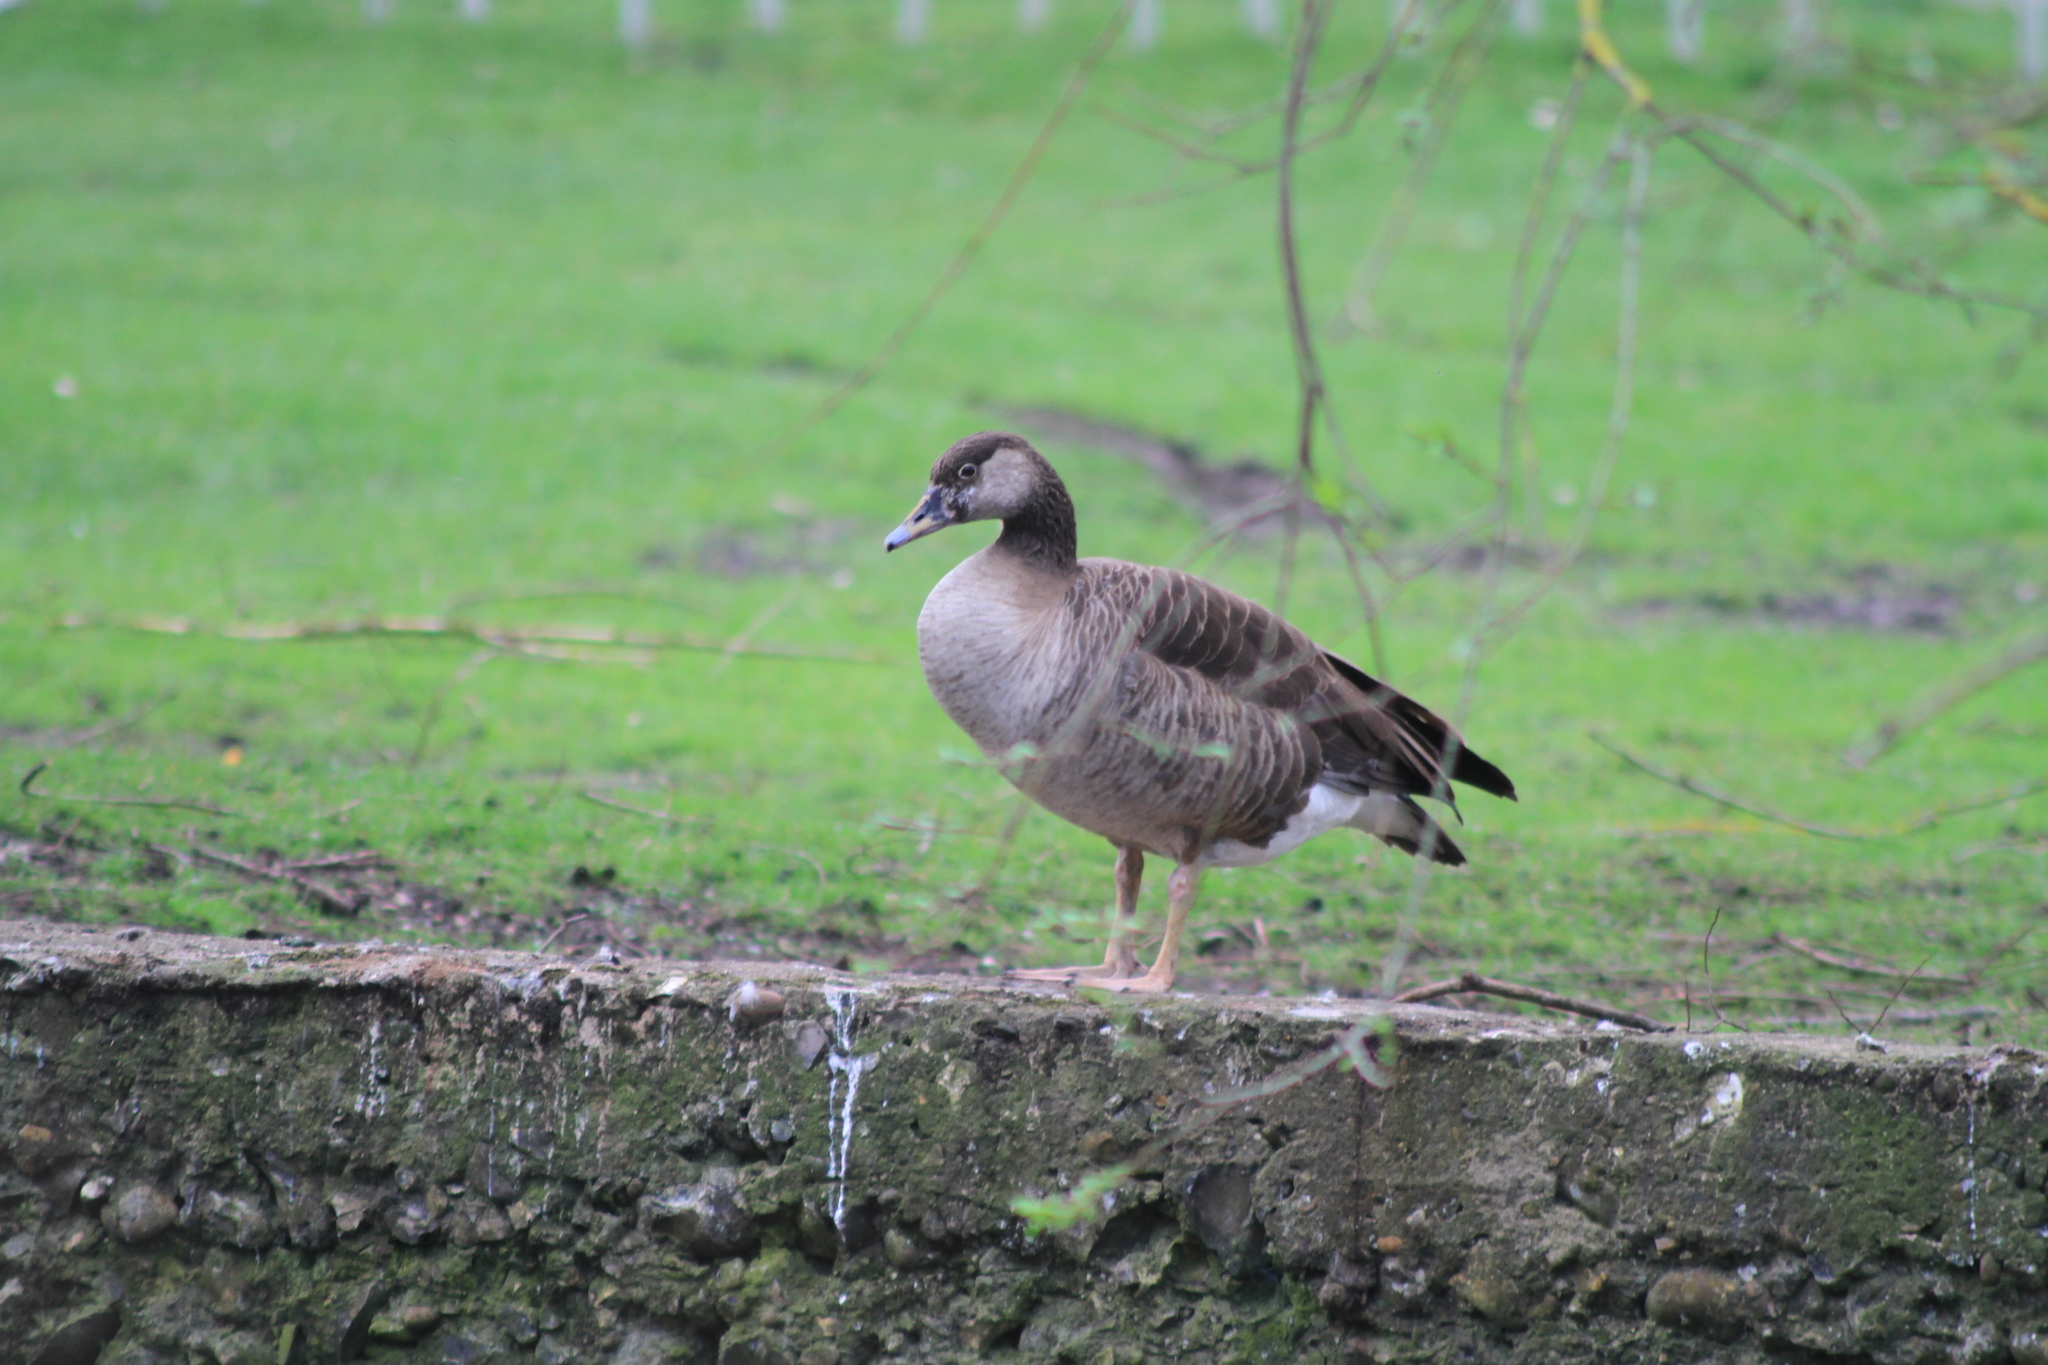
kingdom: Animalia
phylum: Chordata
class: Aves
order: Anseriformes
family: Anatidae
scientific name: Anatidae
